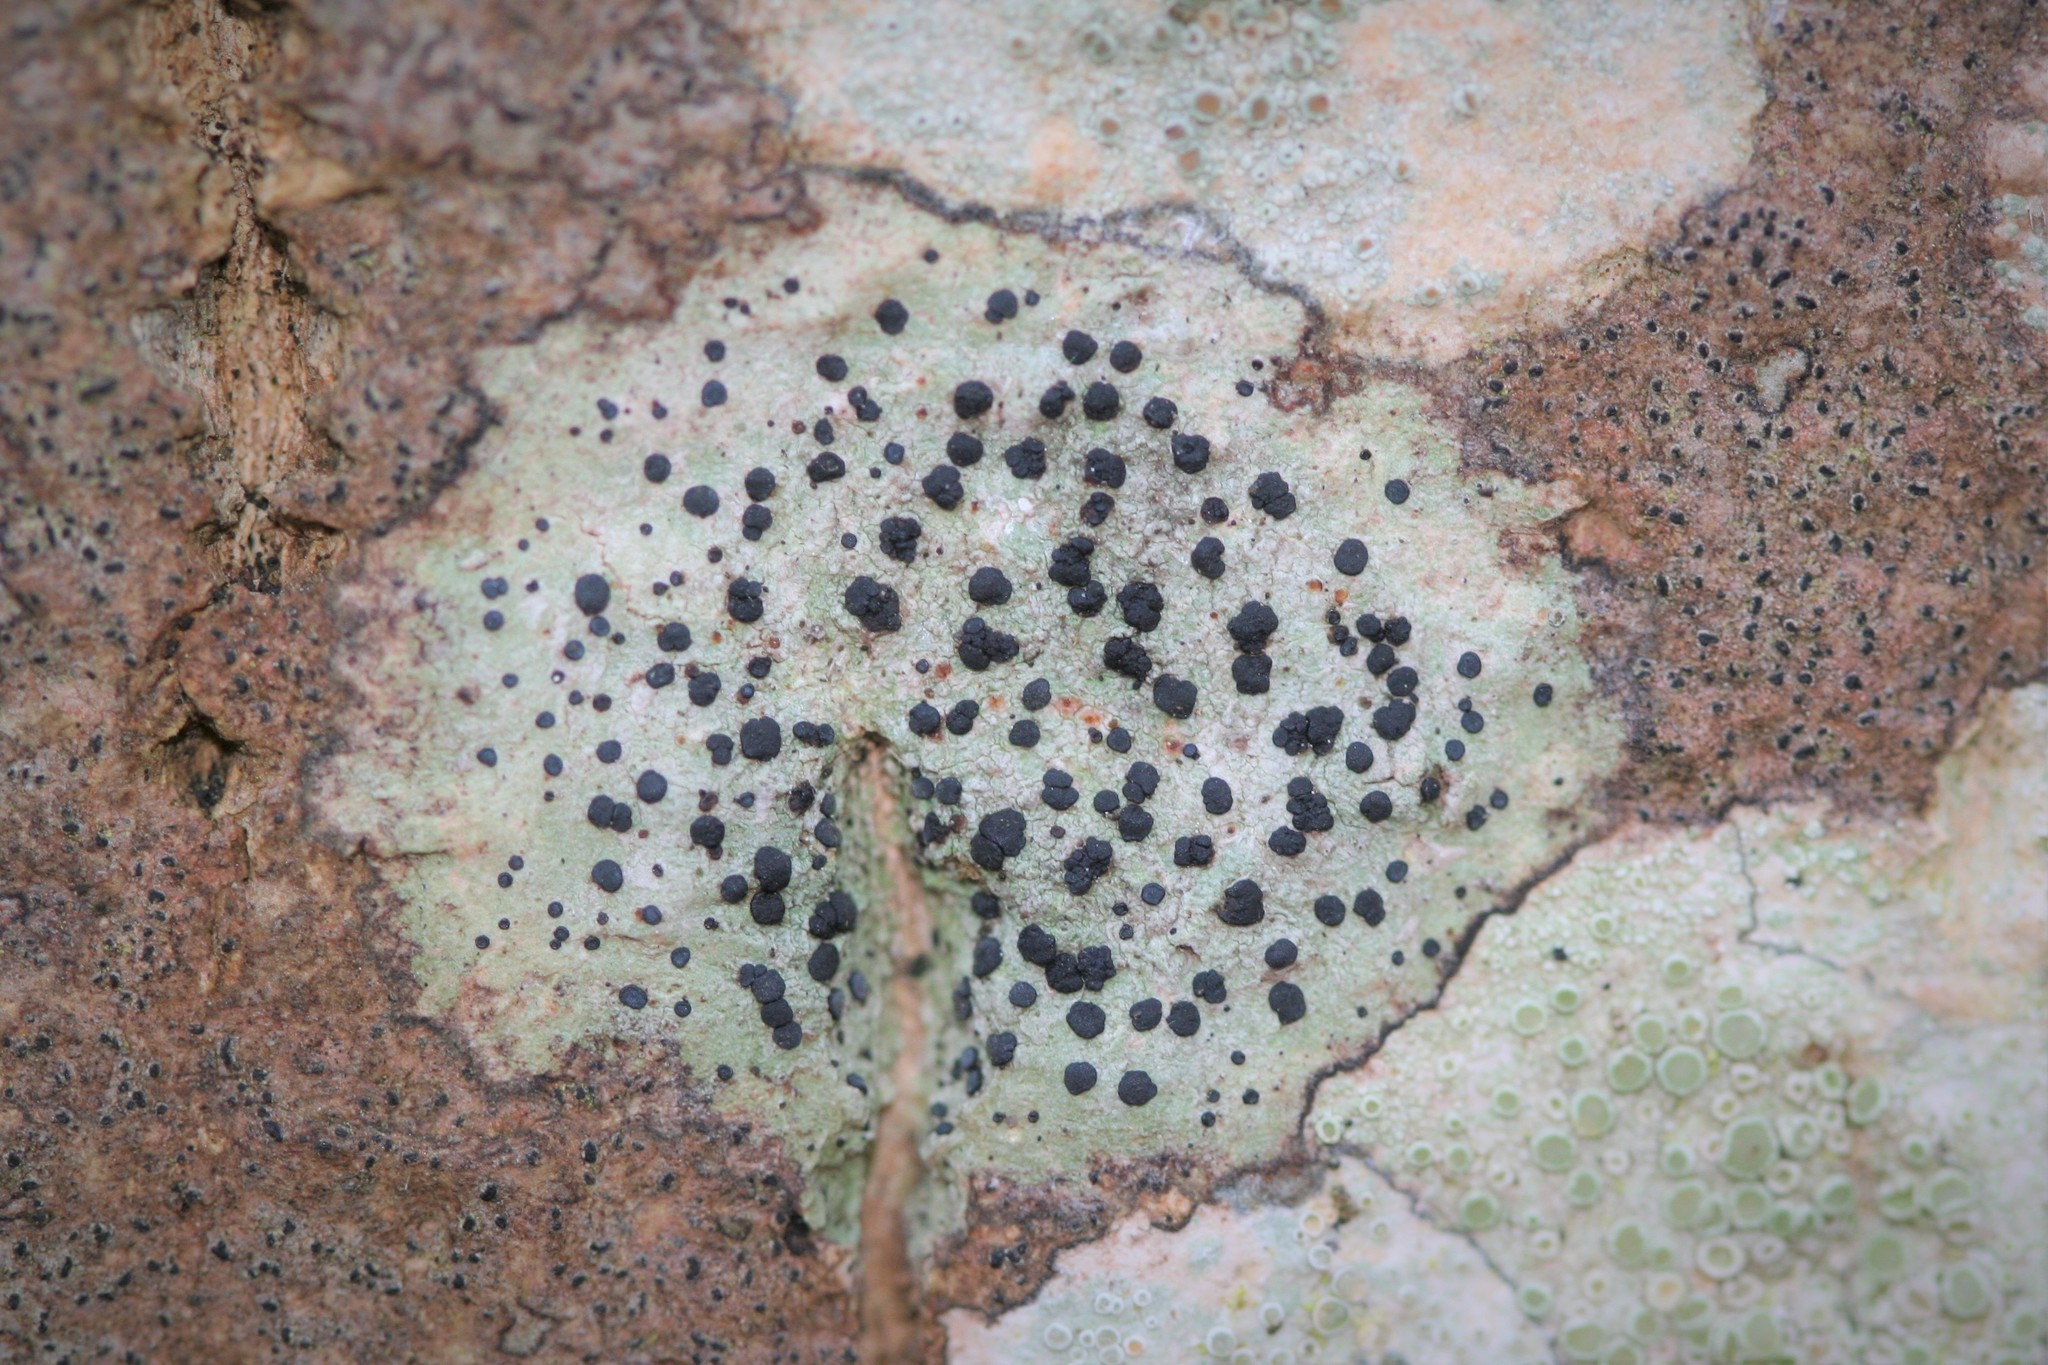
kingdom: Fungi
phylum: Ascomycota
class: Lecanoromycetes
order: Lecanorales
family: Lecanoraceae
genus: Lecidella
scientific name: Lecidella elaeochroma
